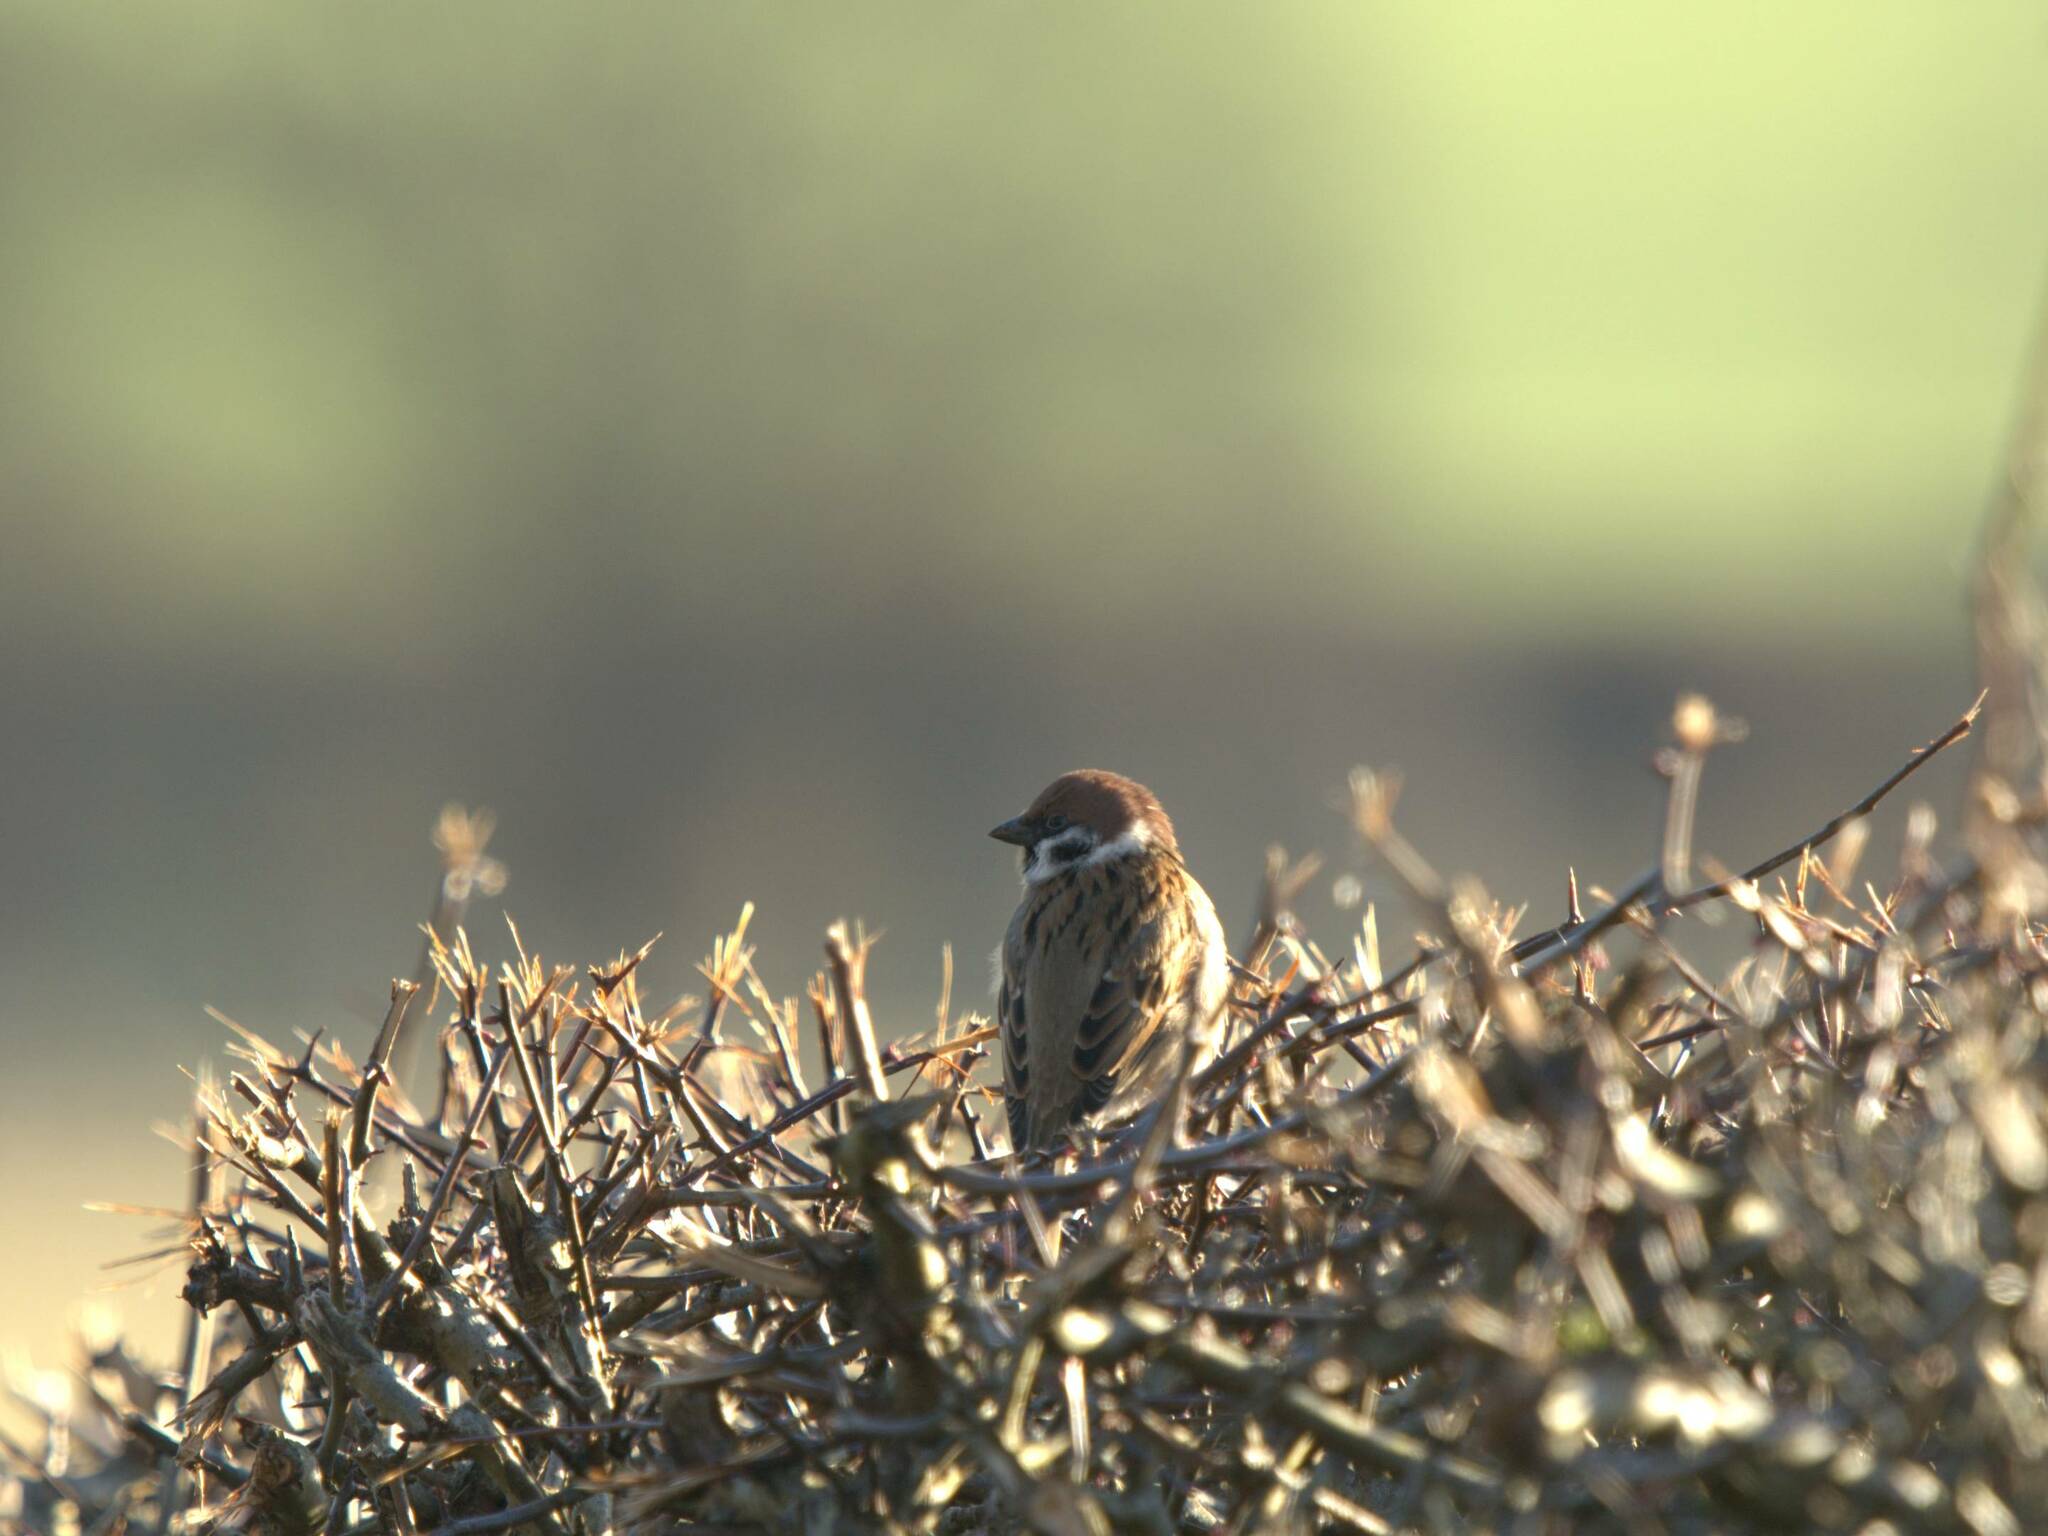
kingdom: Animalia
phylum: Chordata
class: Aves
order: Passeriformes
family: Passeridae
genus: Passer
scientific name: Passer montanus
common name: Eurasian tree sparrow
